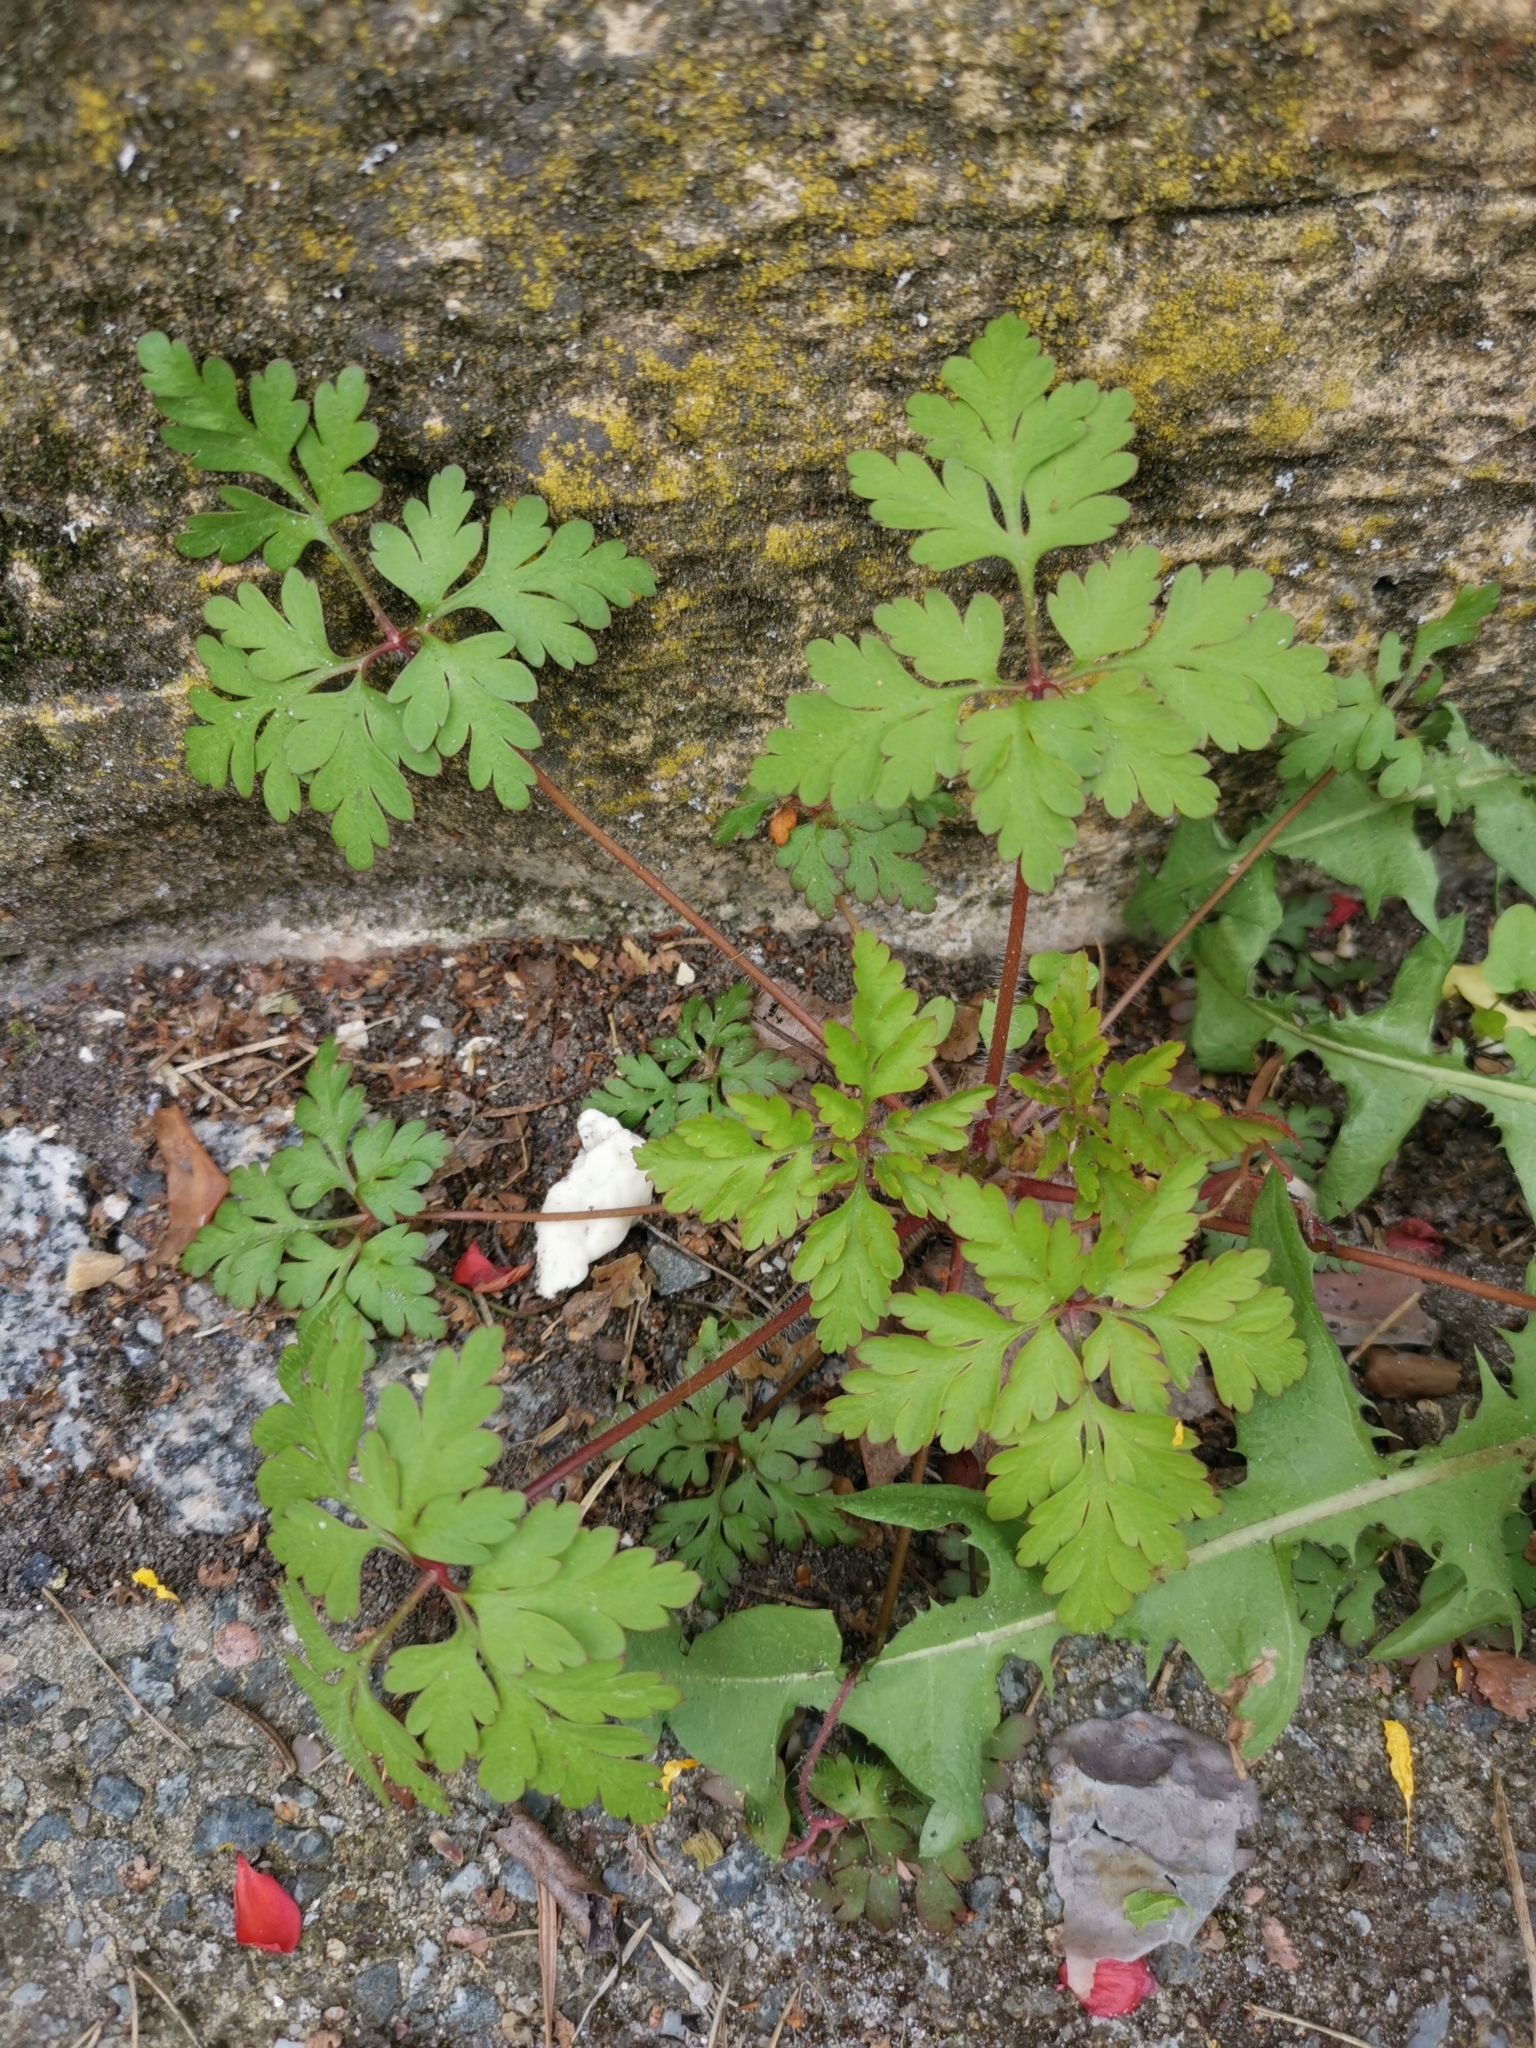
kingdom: Plantae
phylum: Tracheophyta
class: Magnoliopsida
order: Geraniales
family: Geraniaceae
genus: Geranium
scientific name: Geranium robertianum
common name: Herb-robert
